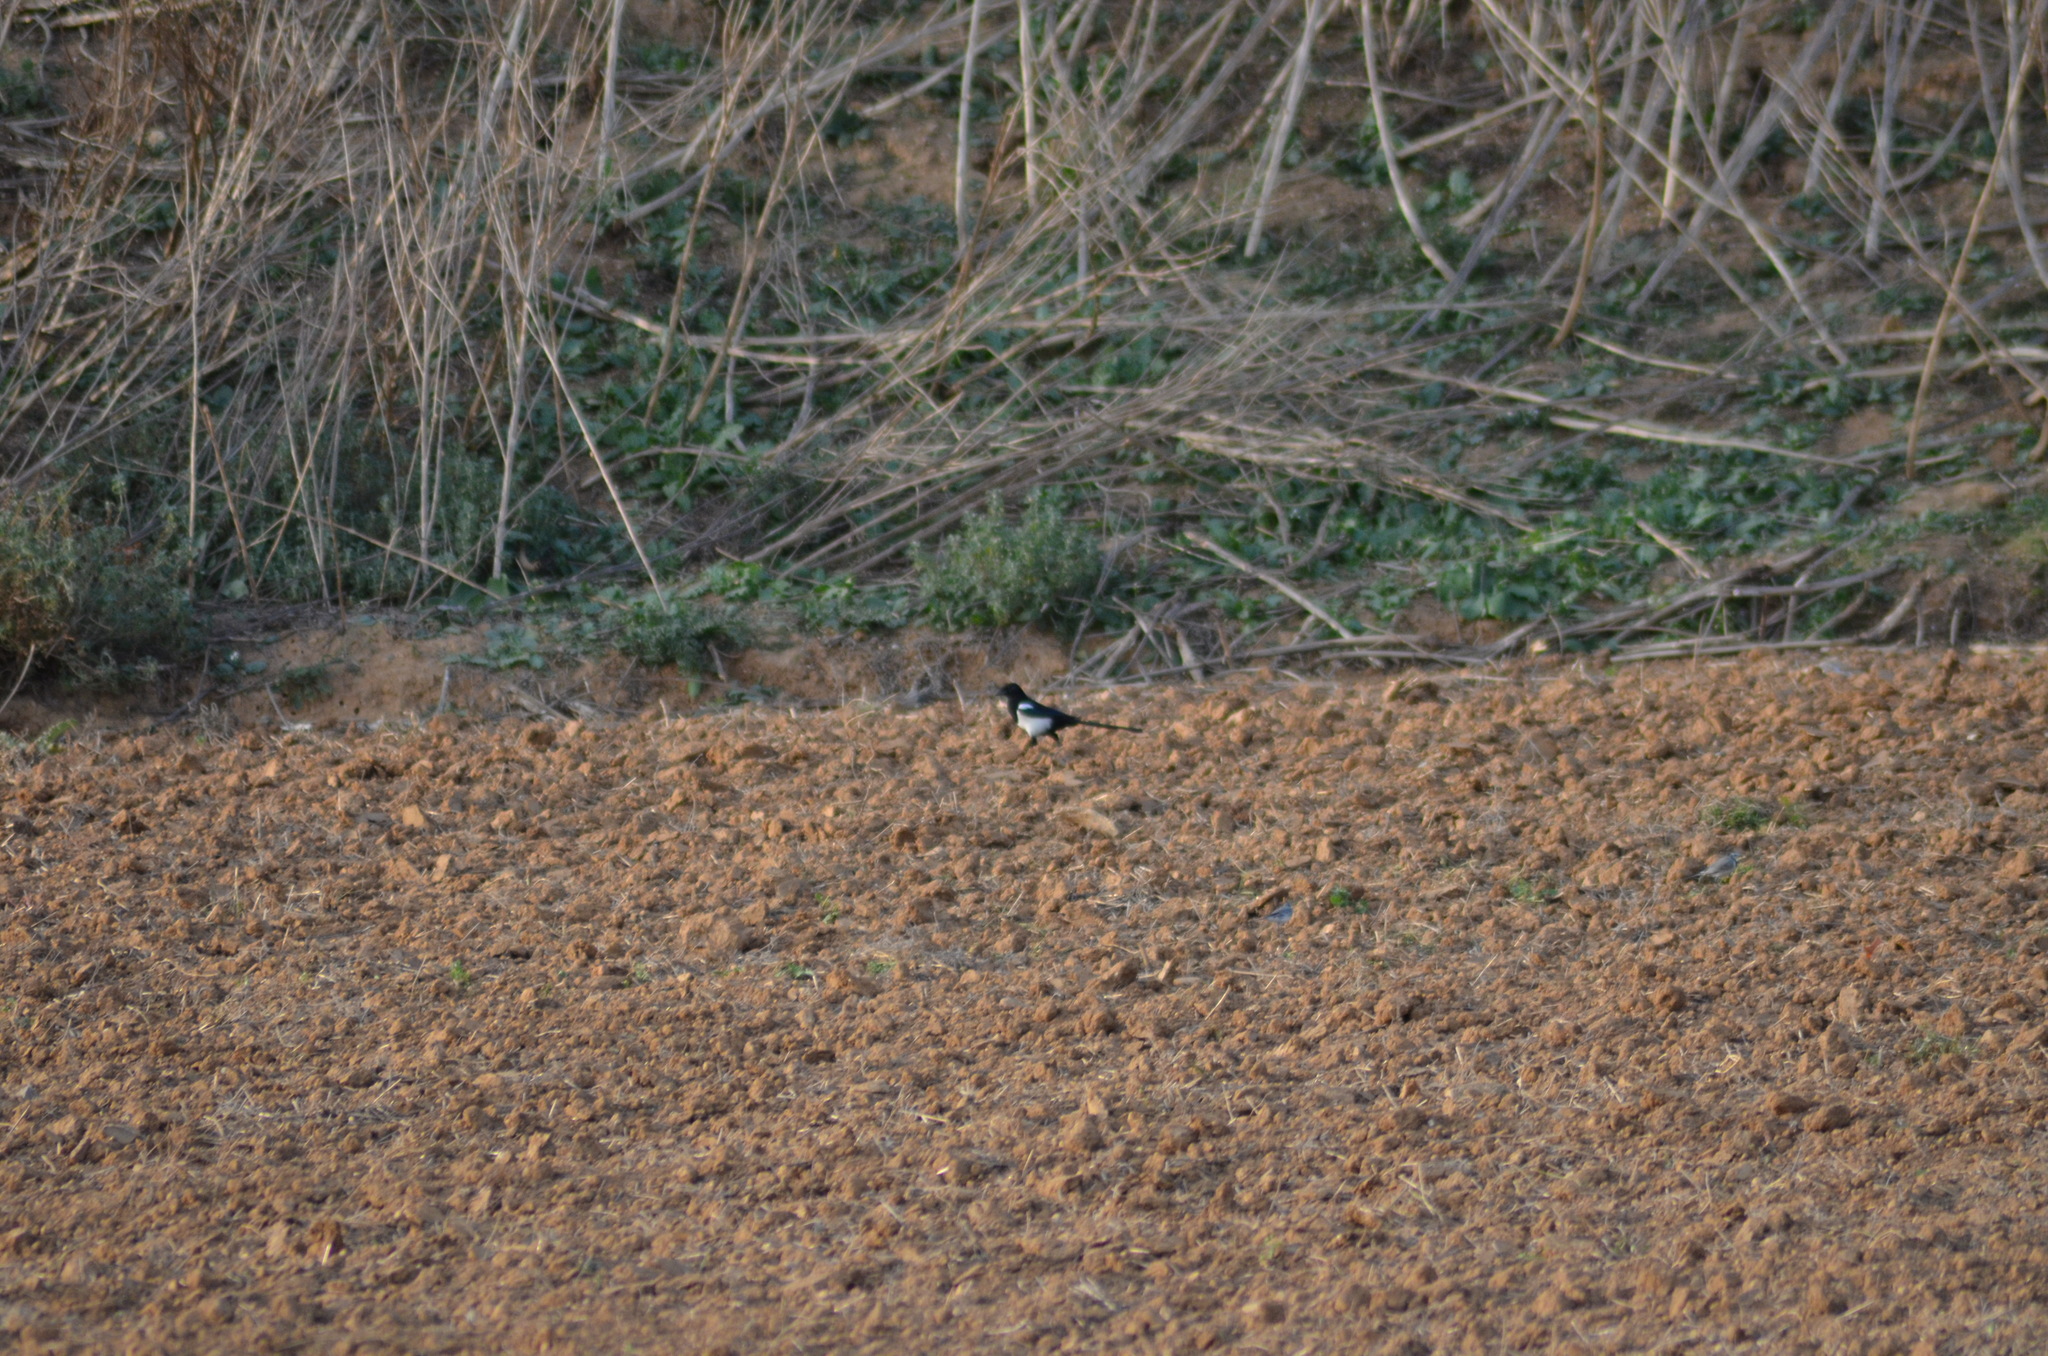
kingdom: Animalia
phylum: Chordata
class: Aves
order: Passeriformes
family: Corvidae
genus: Pica
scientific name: Pica pica
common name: Eurasian magpie
